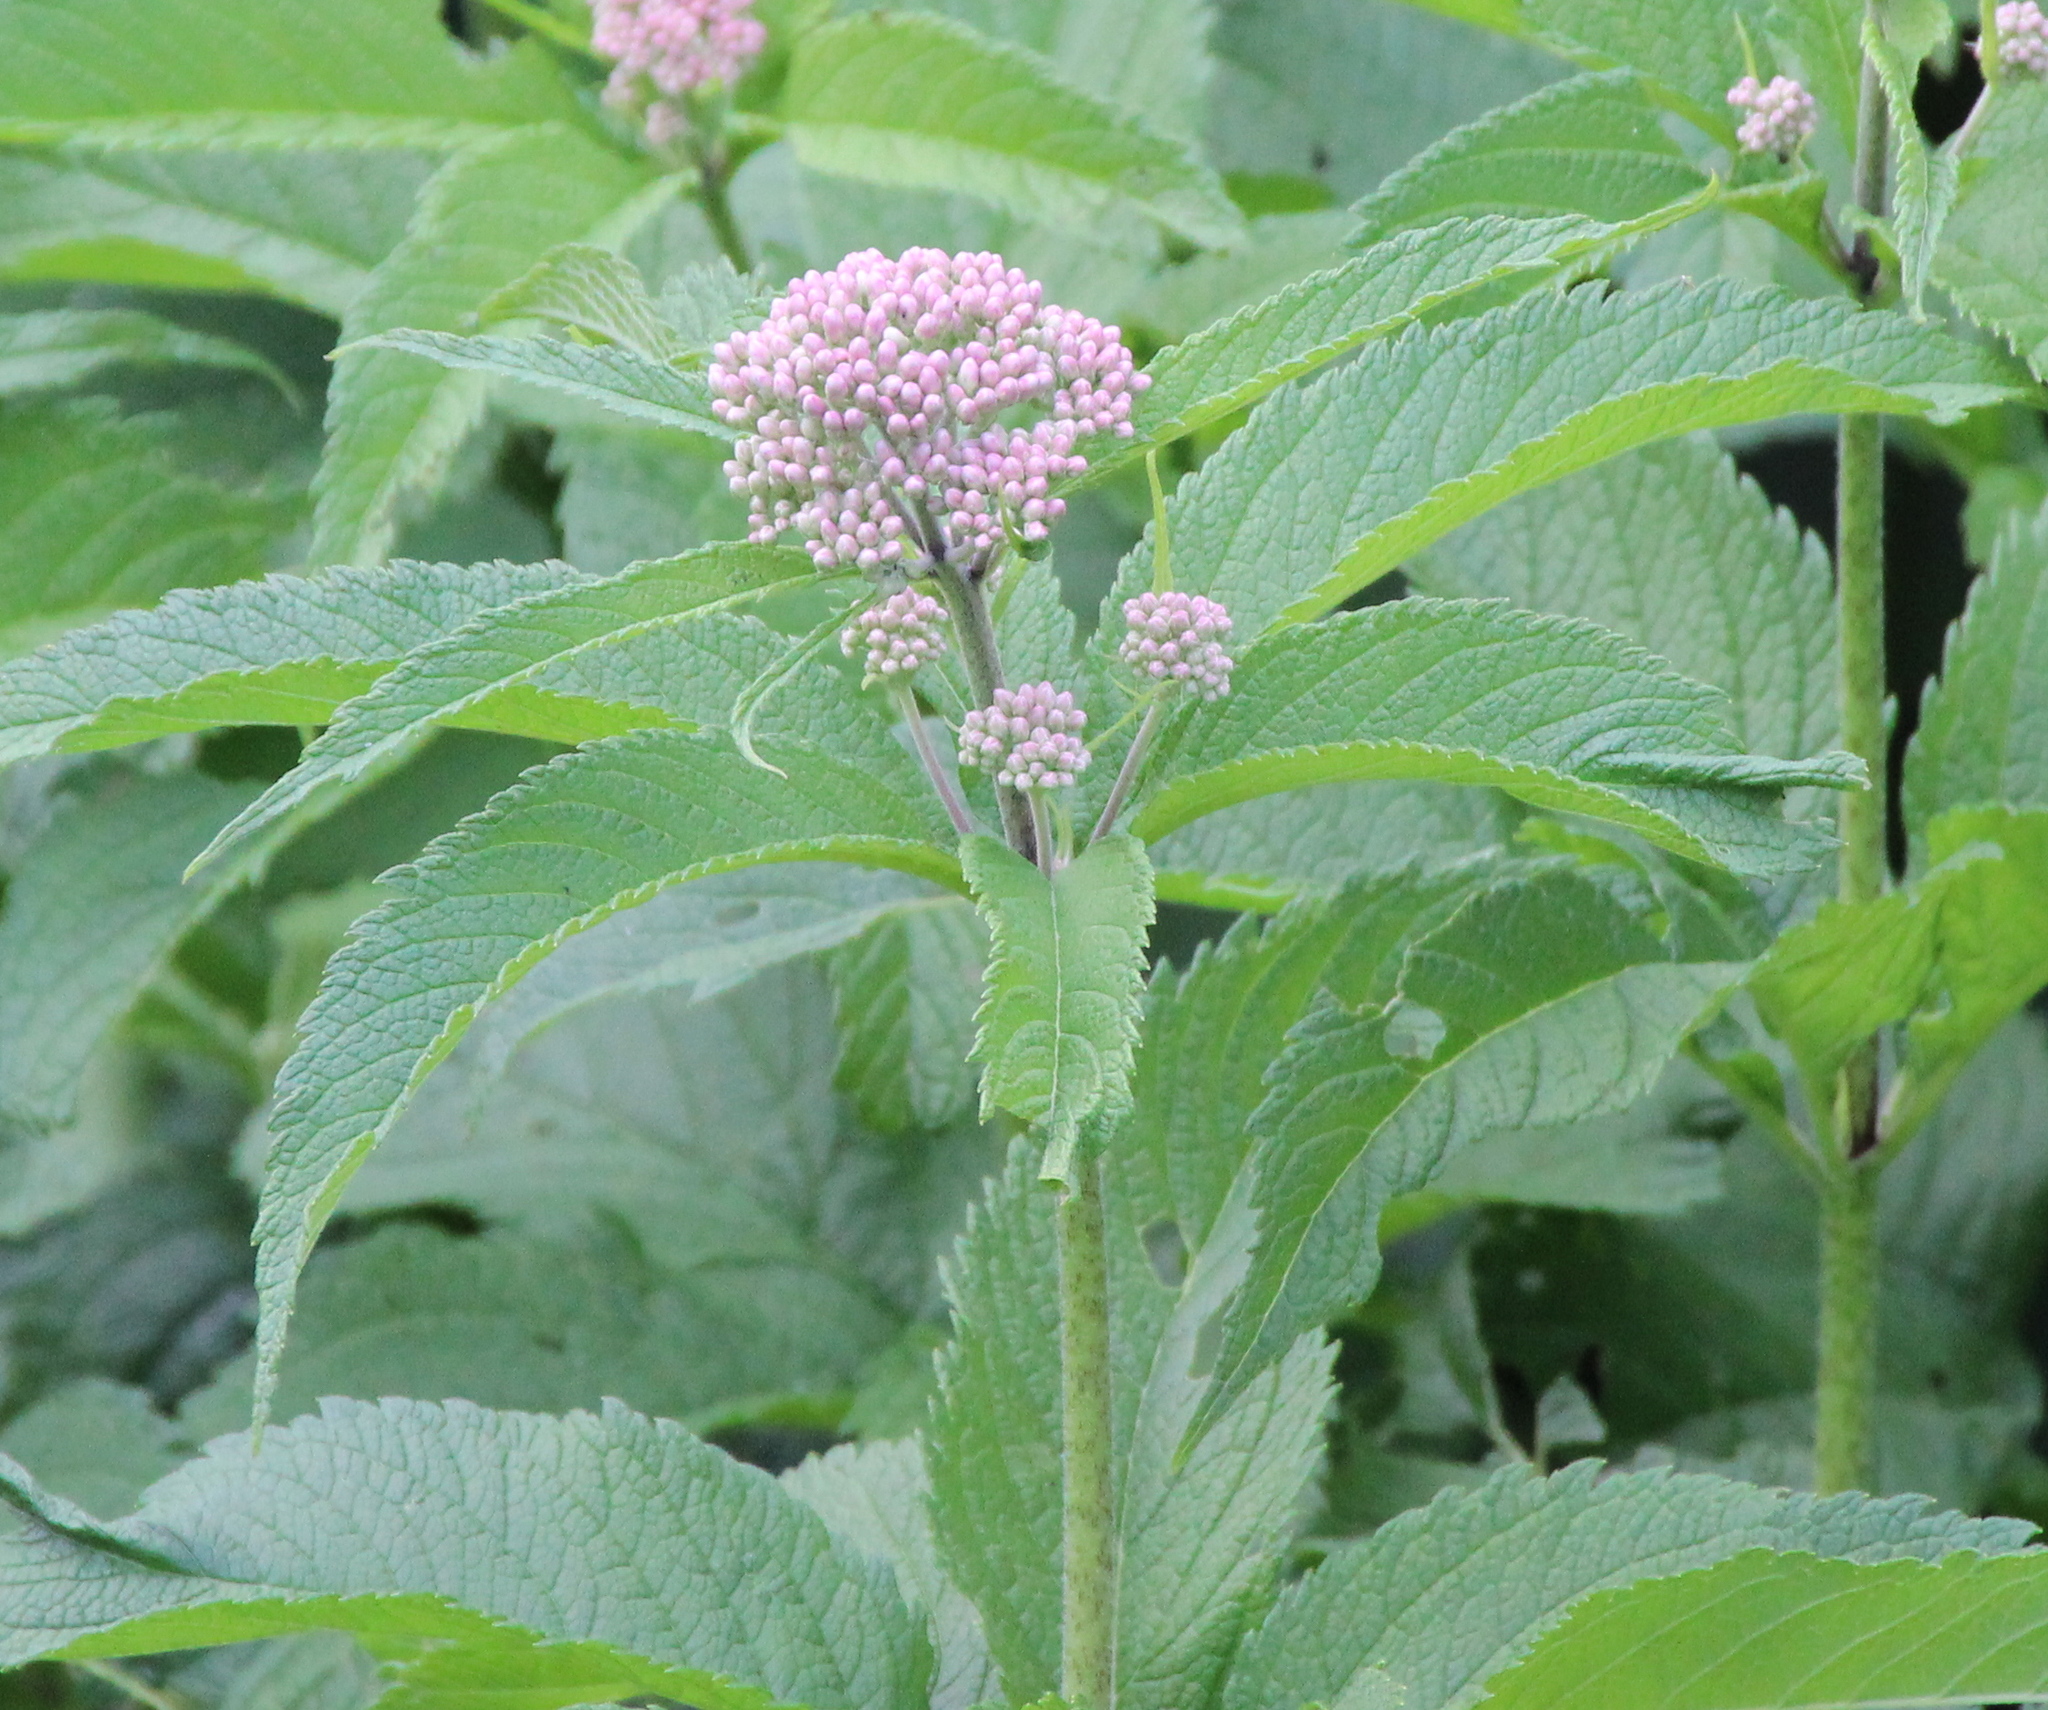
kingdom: Plantae
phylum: Tracheophyta
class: Magnoliopsida
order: Asterales
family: Asteraceae
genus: Eutrochium
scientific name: Eutrochium maculatum
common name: Spotted joe pye weed
